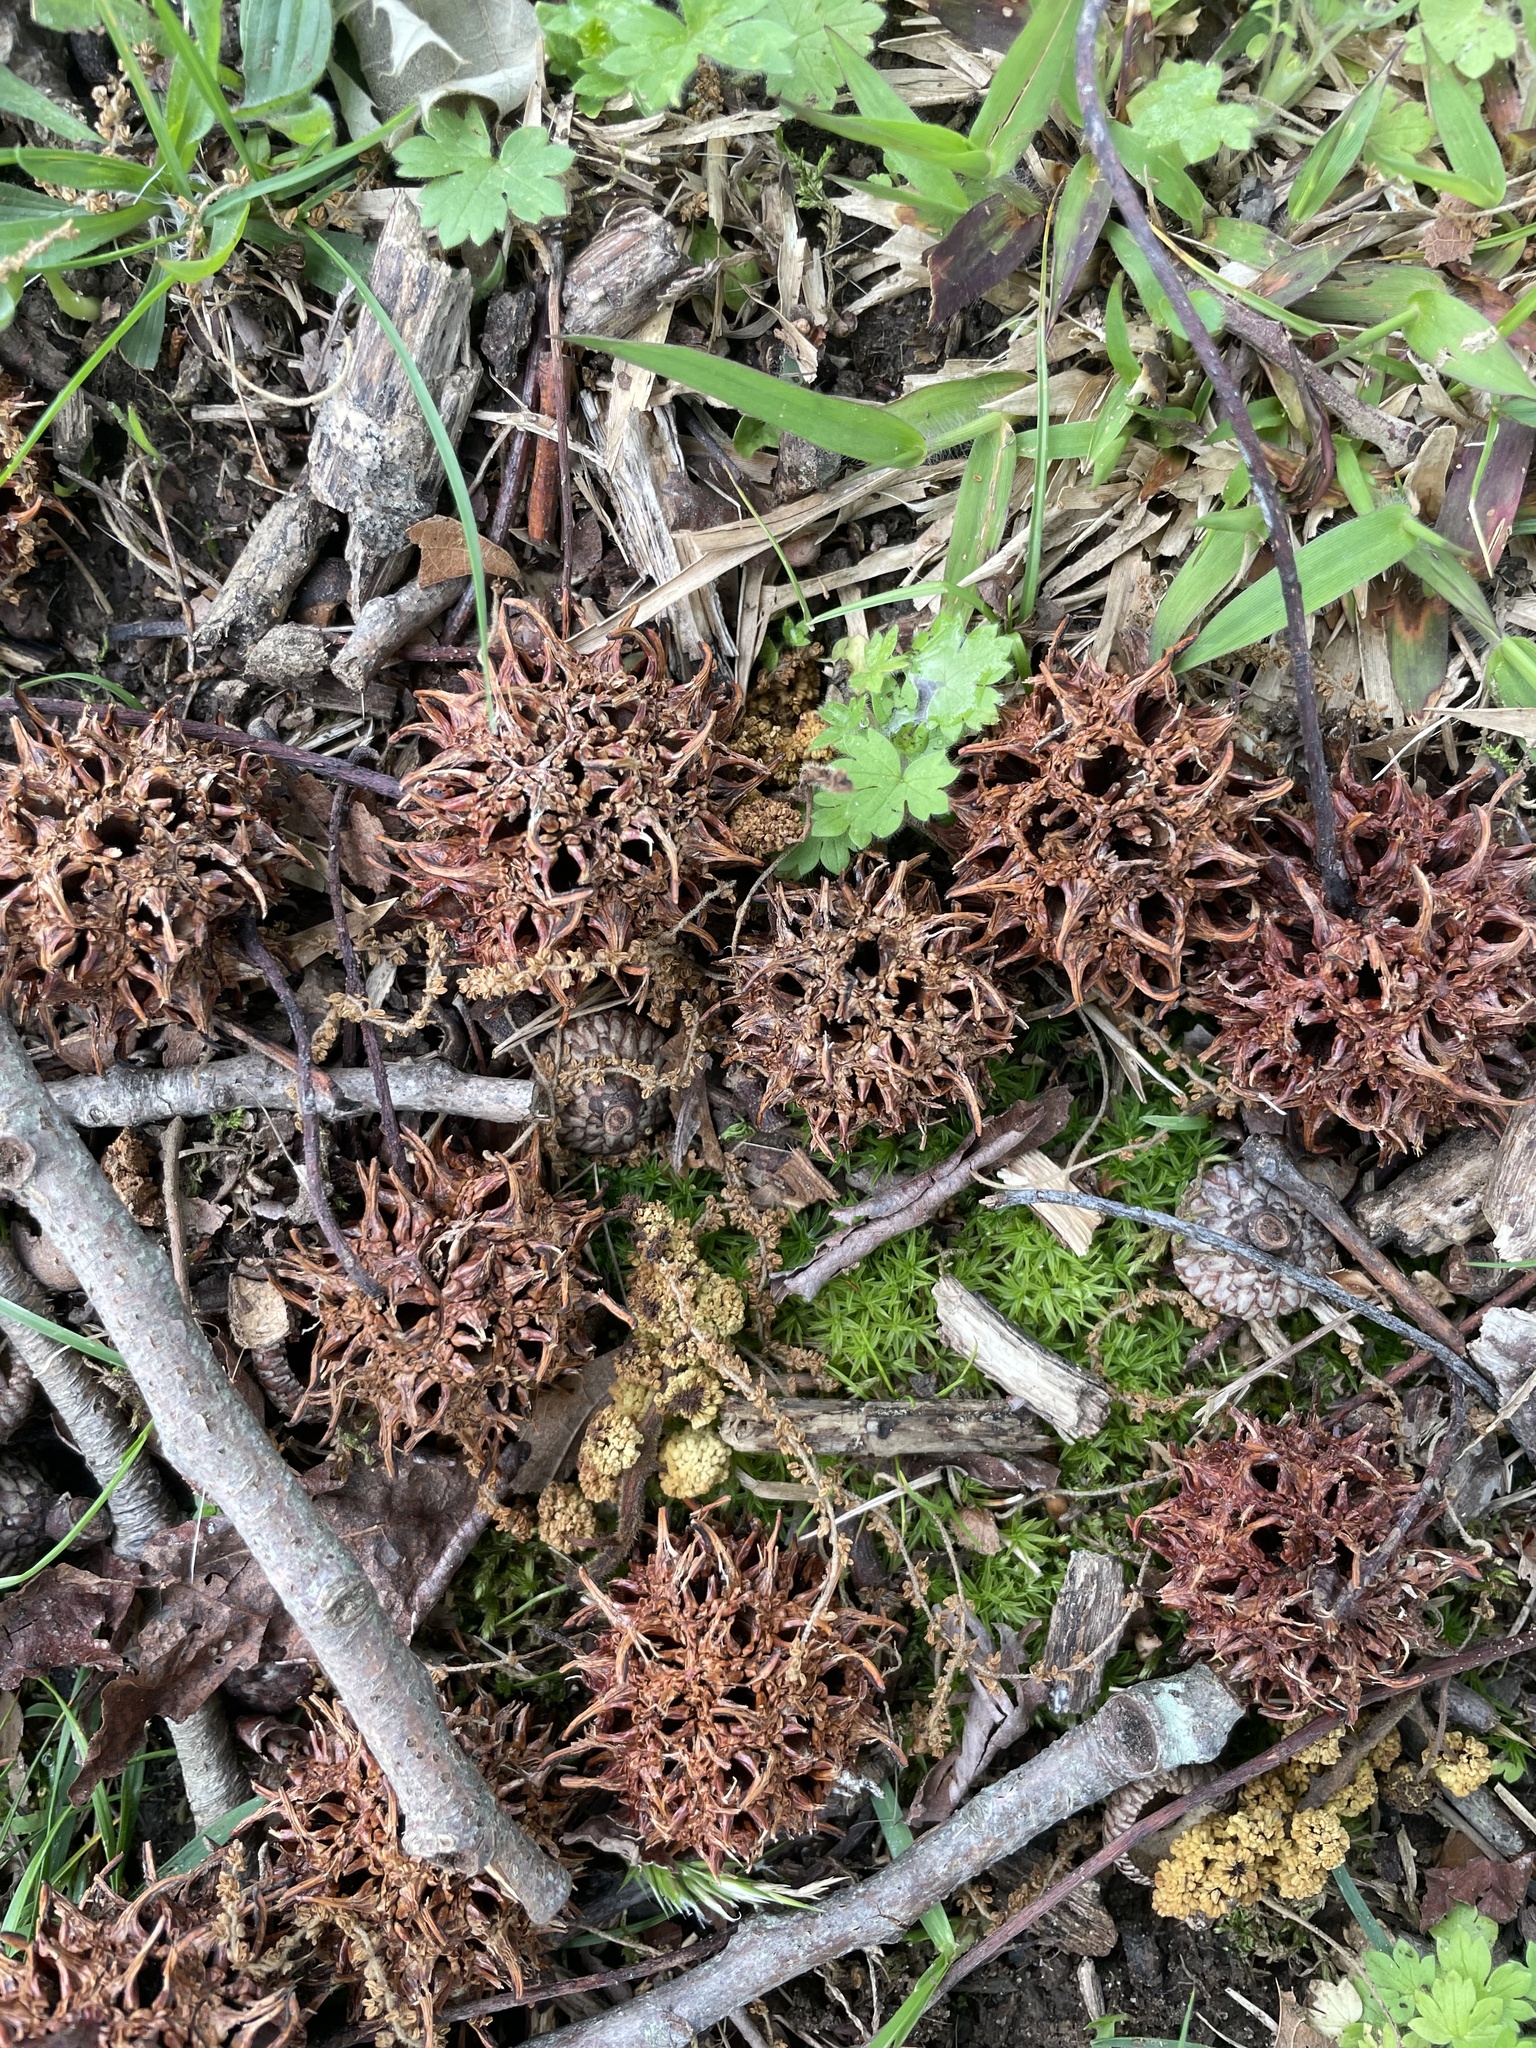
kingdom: Plantae
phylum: Tracheophyta
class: Magnoliopsida
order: Saxifragales
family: Altingiaceae
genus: Liquidambar
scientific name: Liquidambar styraciflua
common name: Sweet gum
